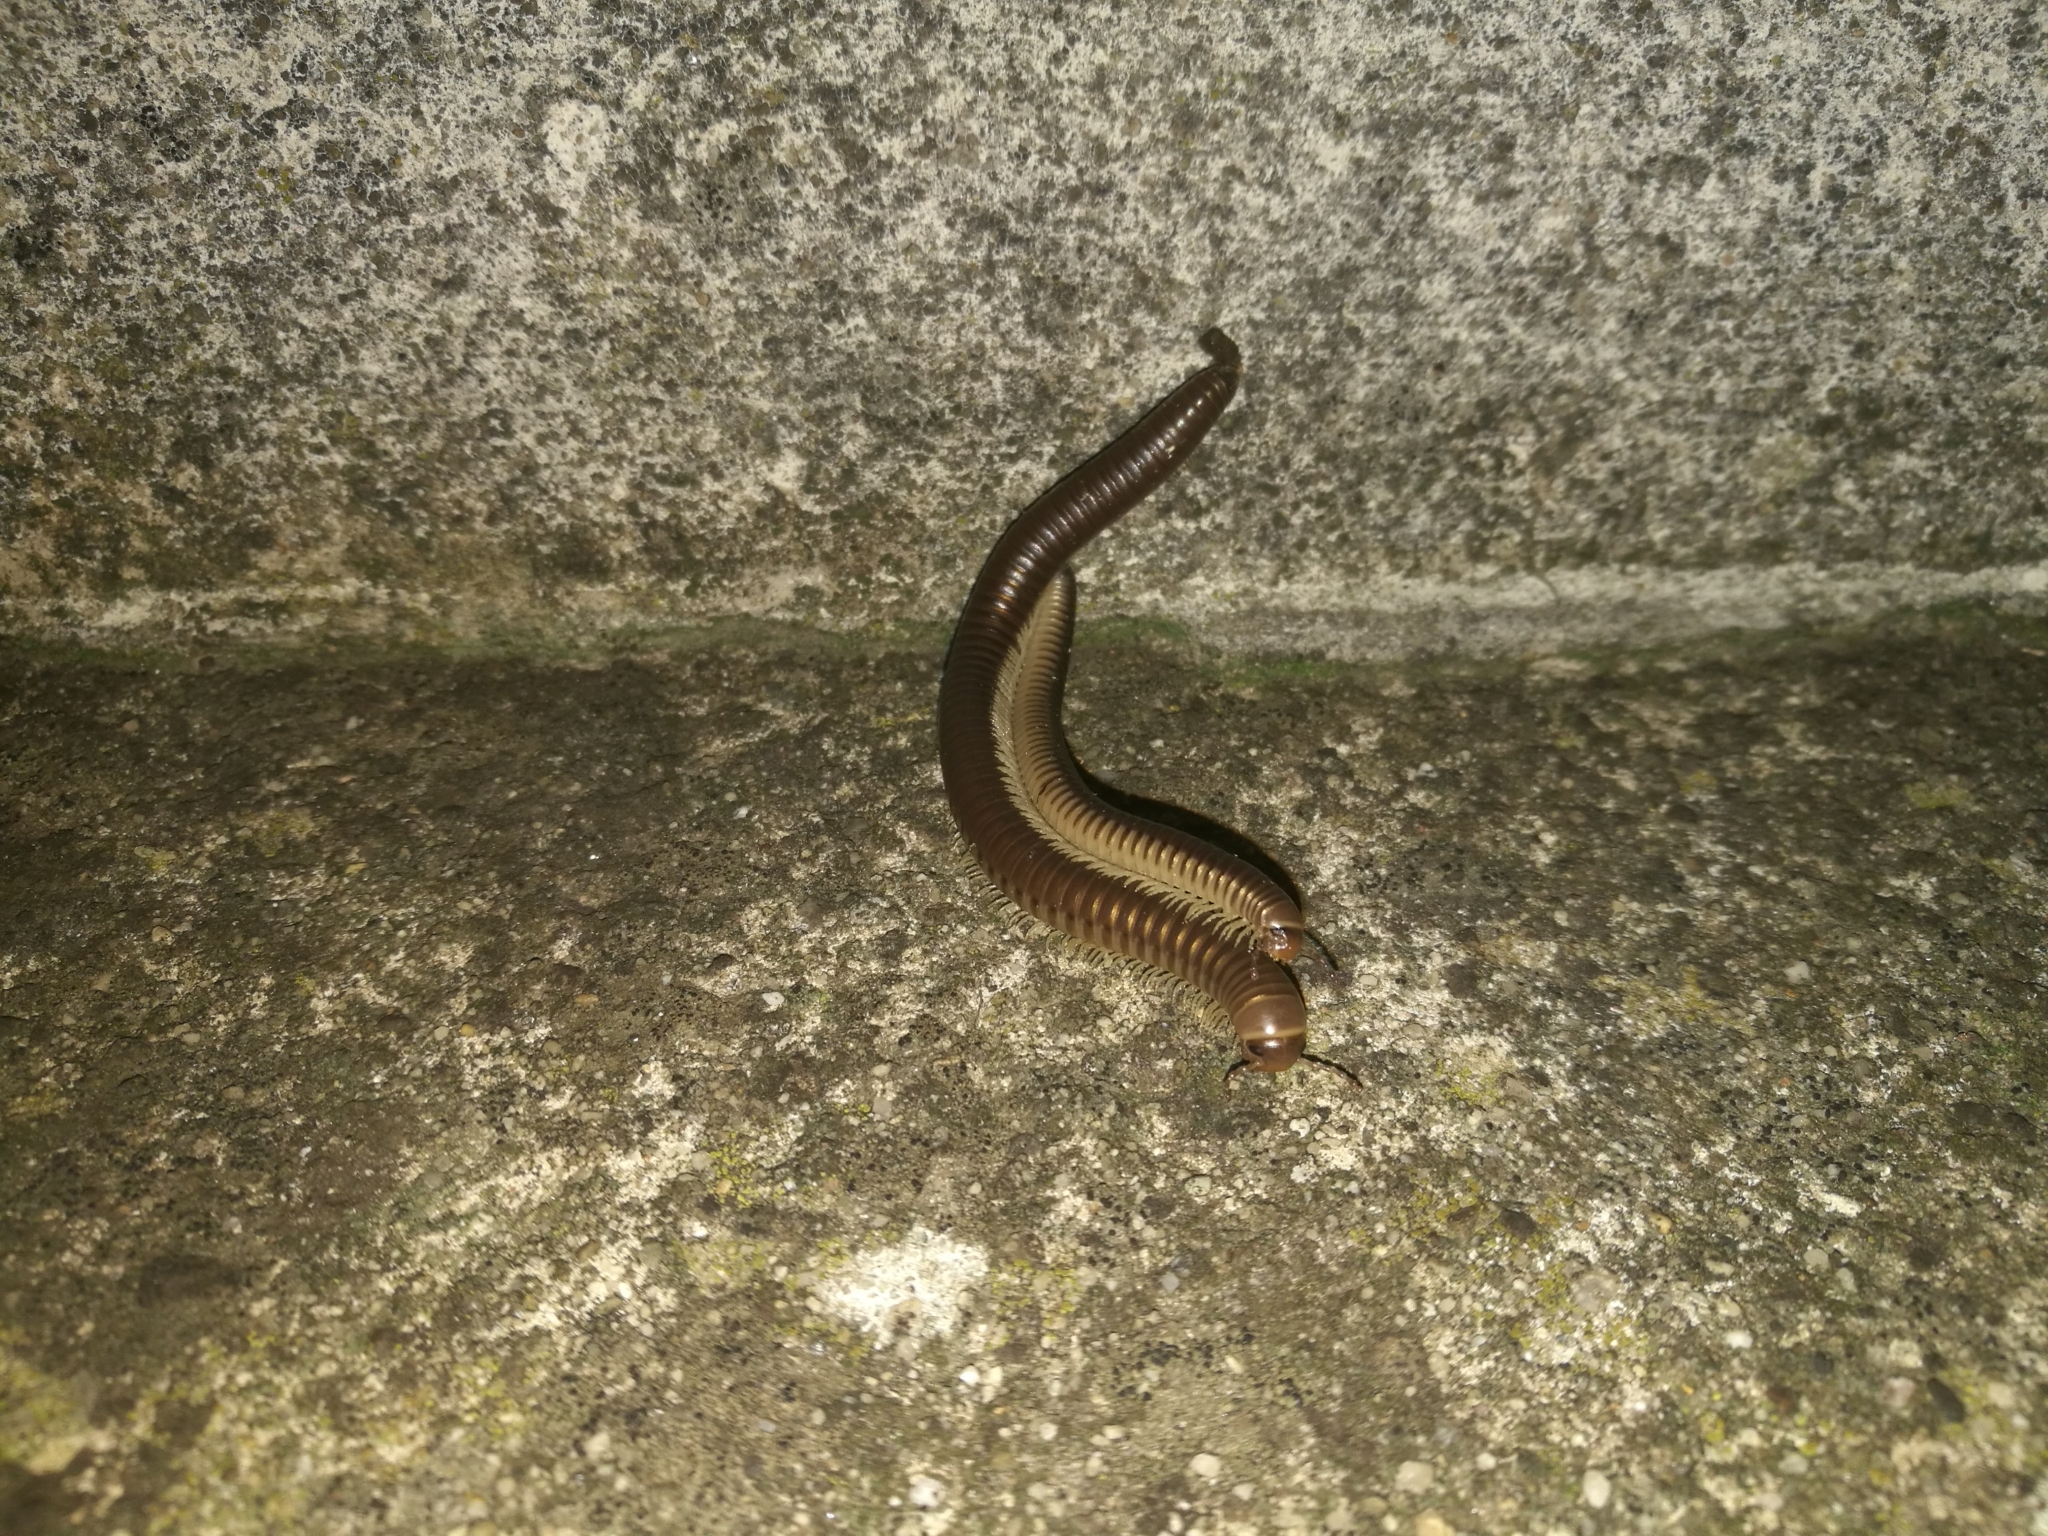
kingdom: Animalia
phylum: Arthropoda
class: Diplopoda
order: Julida
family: Julidae
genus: Pachyiulus
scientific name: Pachyiulus flavipes
